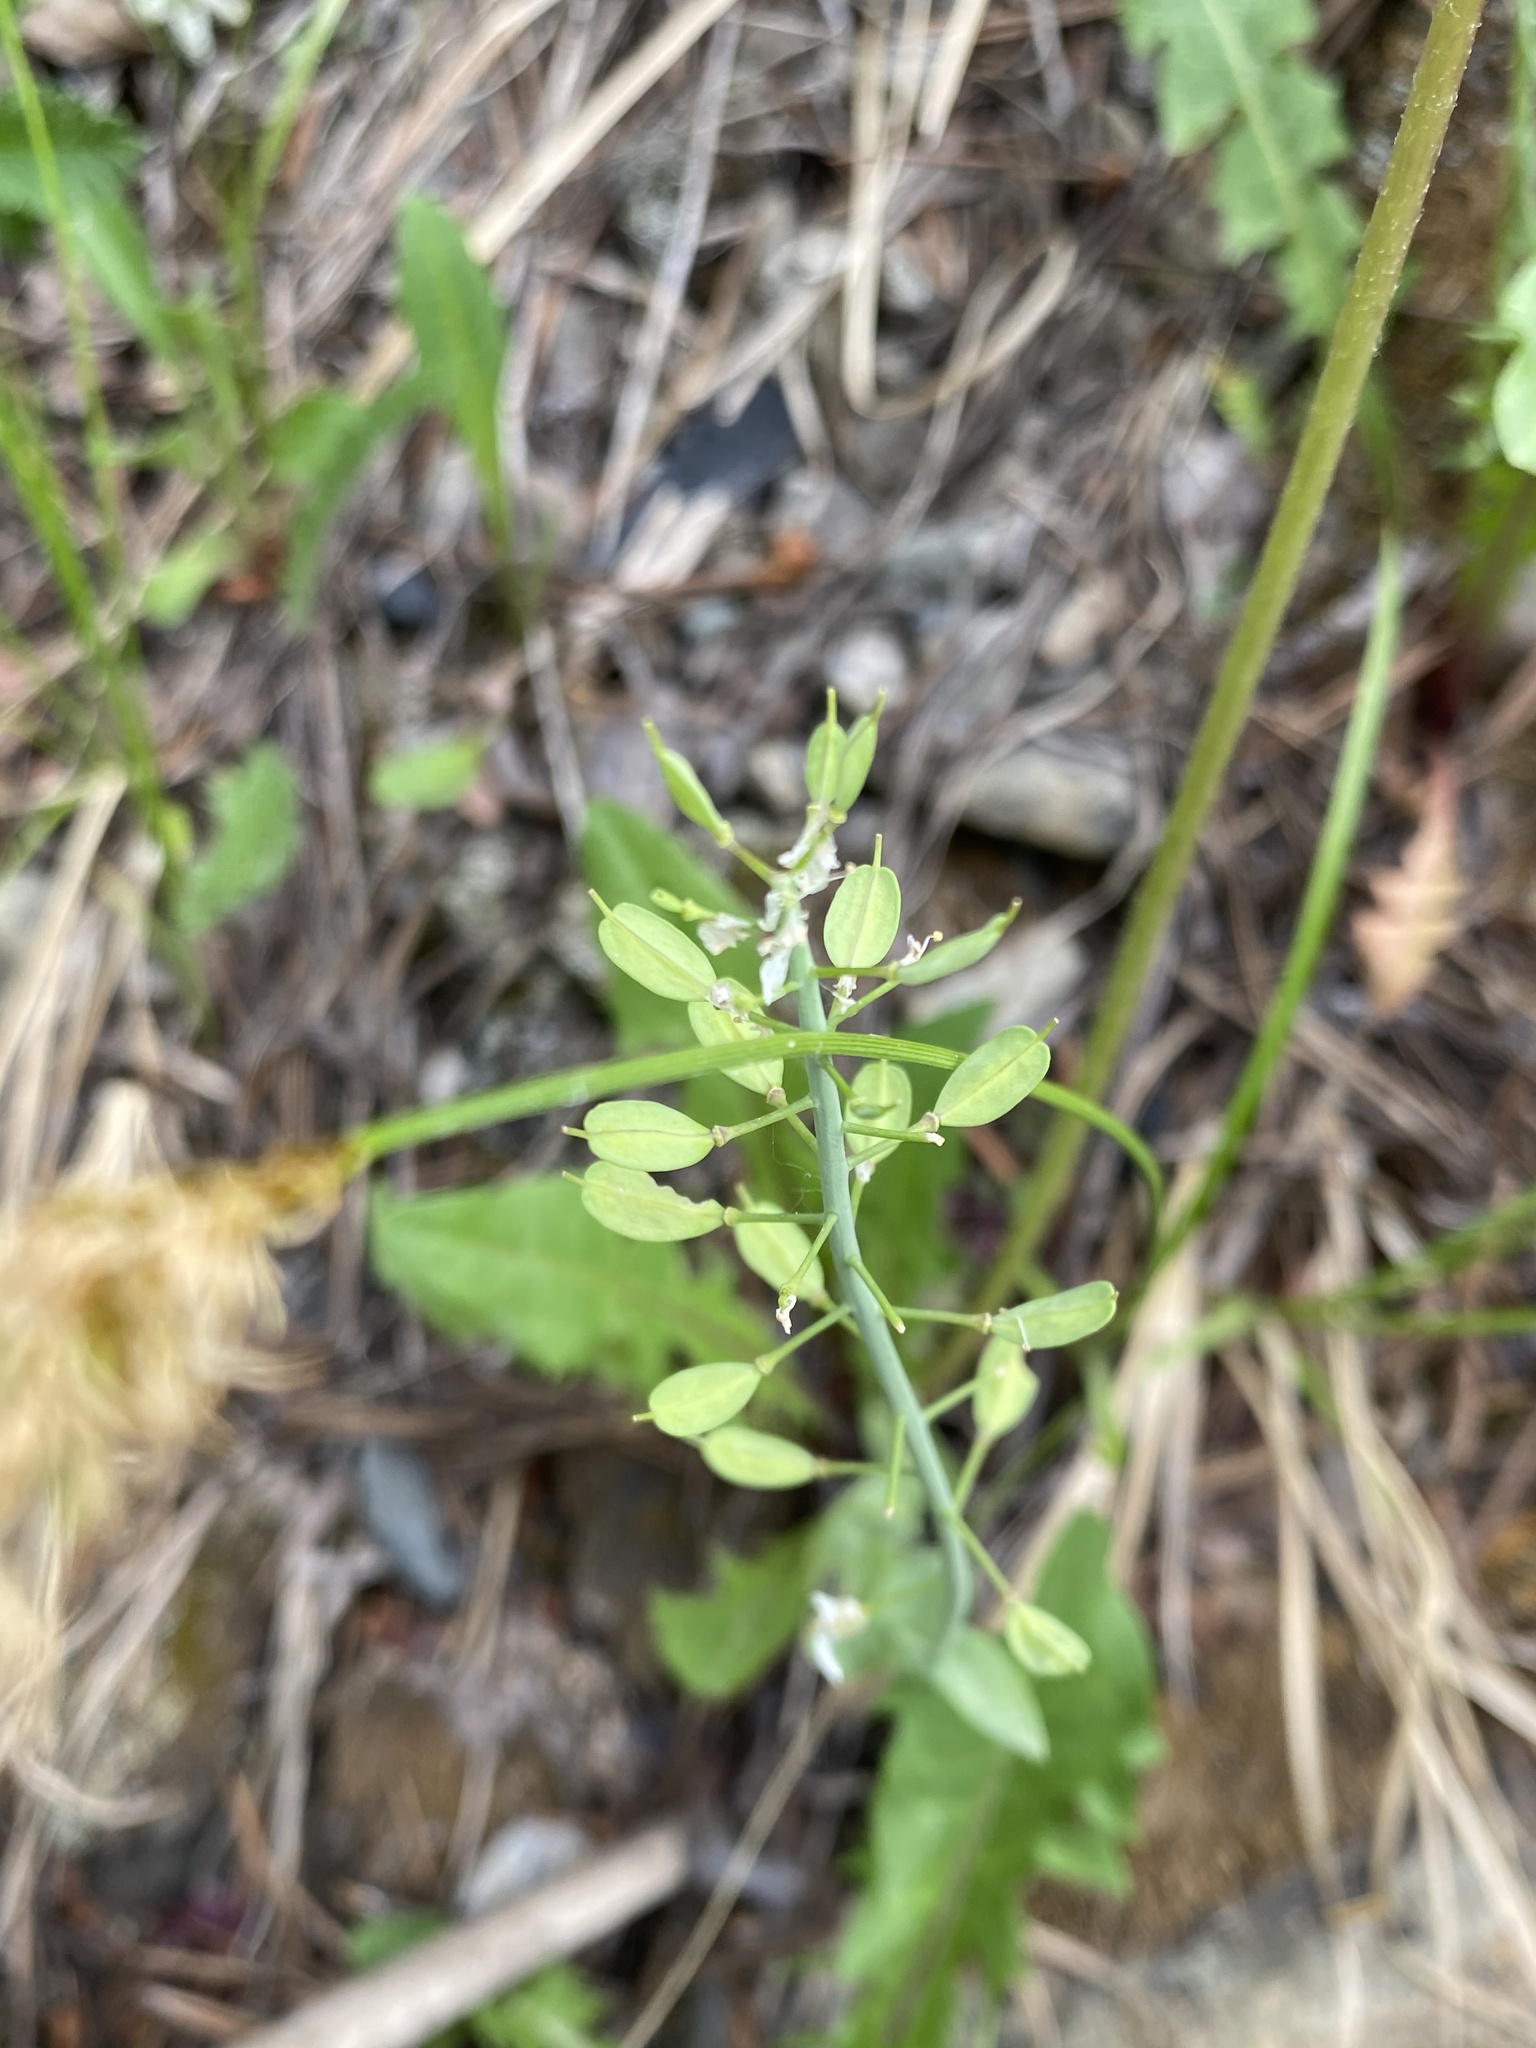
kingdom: Plantae
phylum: Tracheophyta
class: Magnoliopsida
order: Brassicales
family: Brassicaceae
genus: Noccaea
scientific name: Noccaea fendleri
